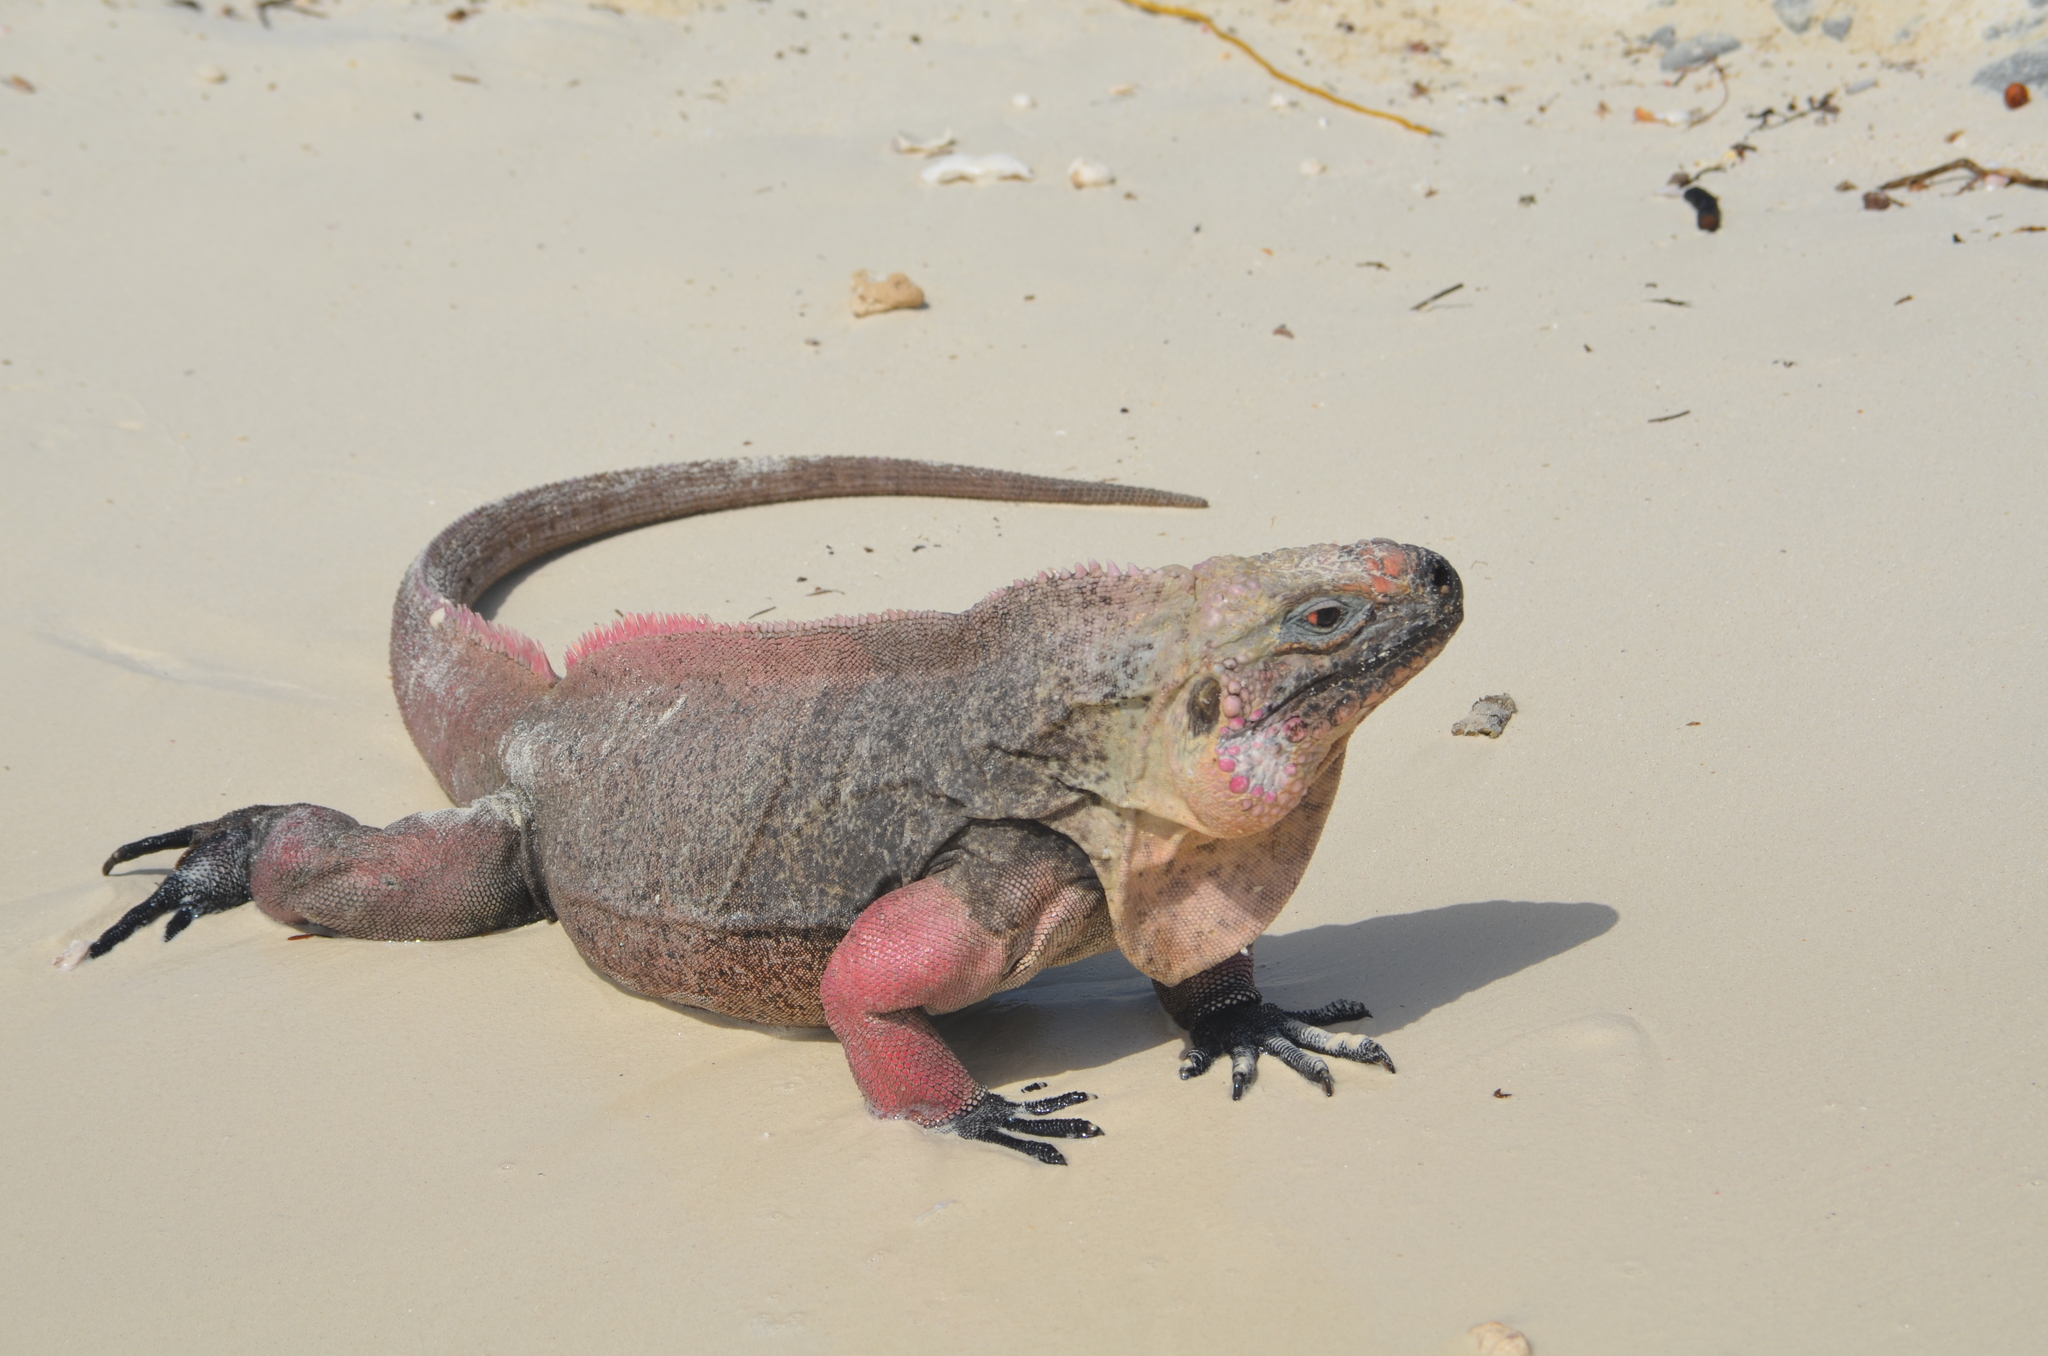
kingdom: Animalia
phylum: Chordata
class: Squamata
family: Iguanidae
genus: Cyclura
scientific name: Cyclura cychlura
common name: Northern bahamian rock iguana
